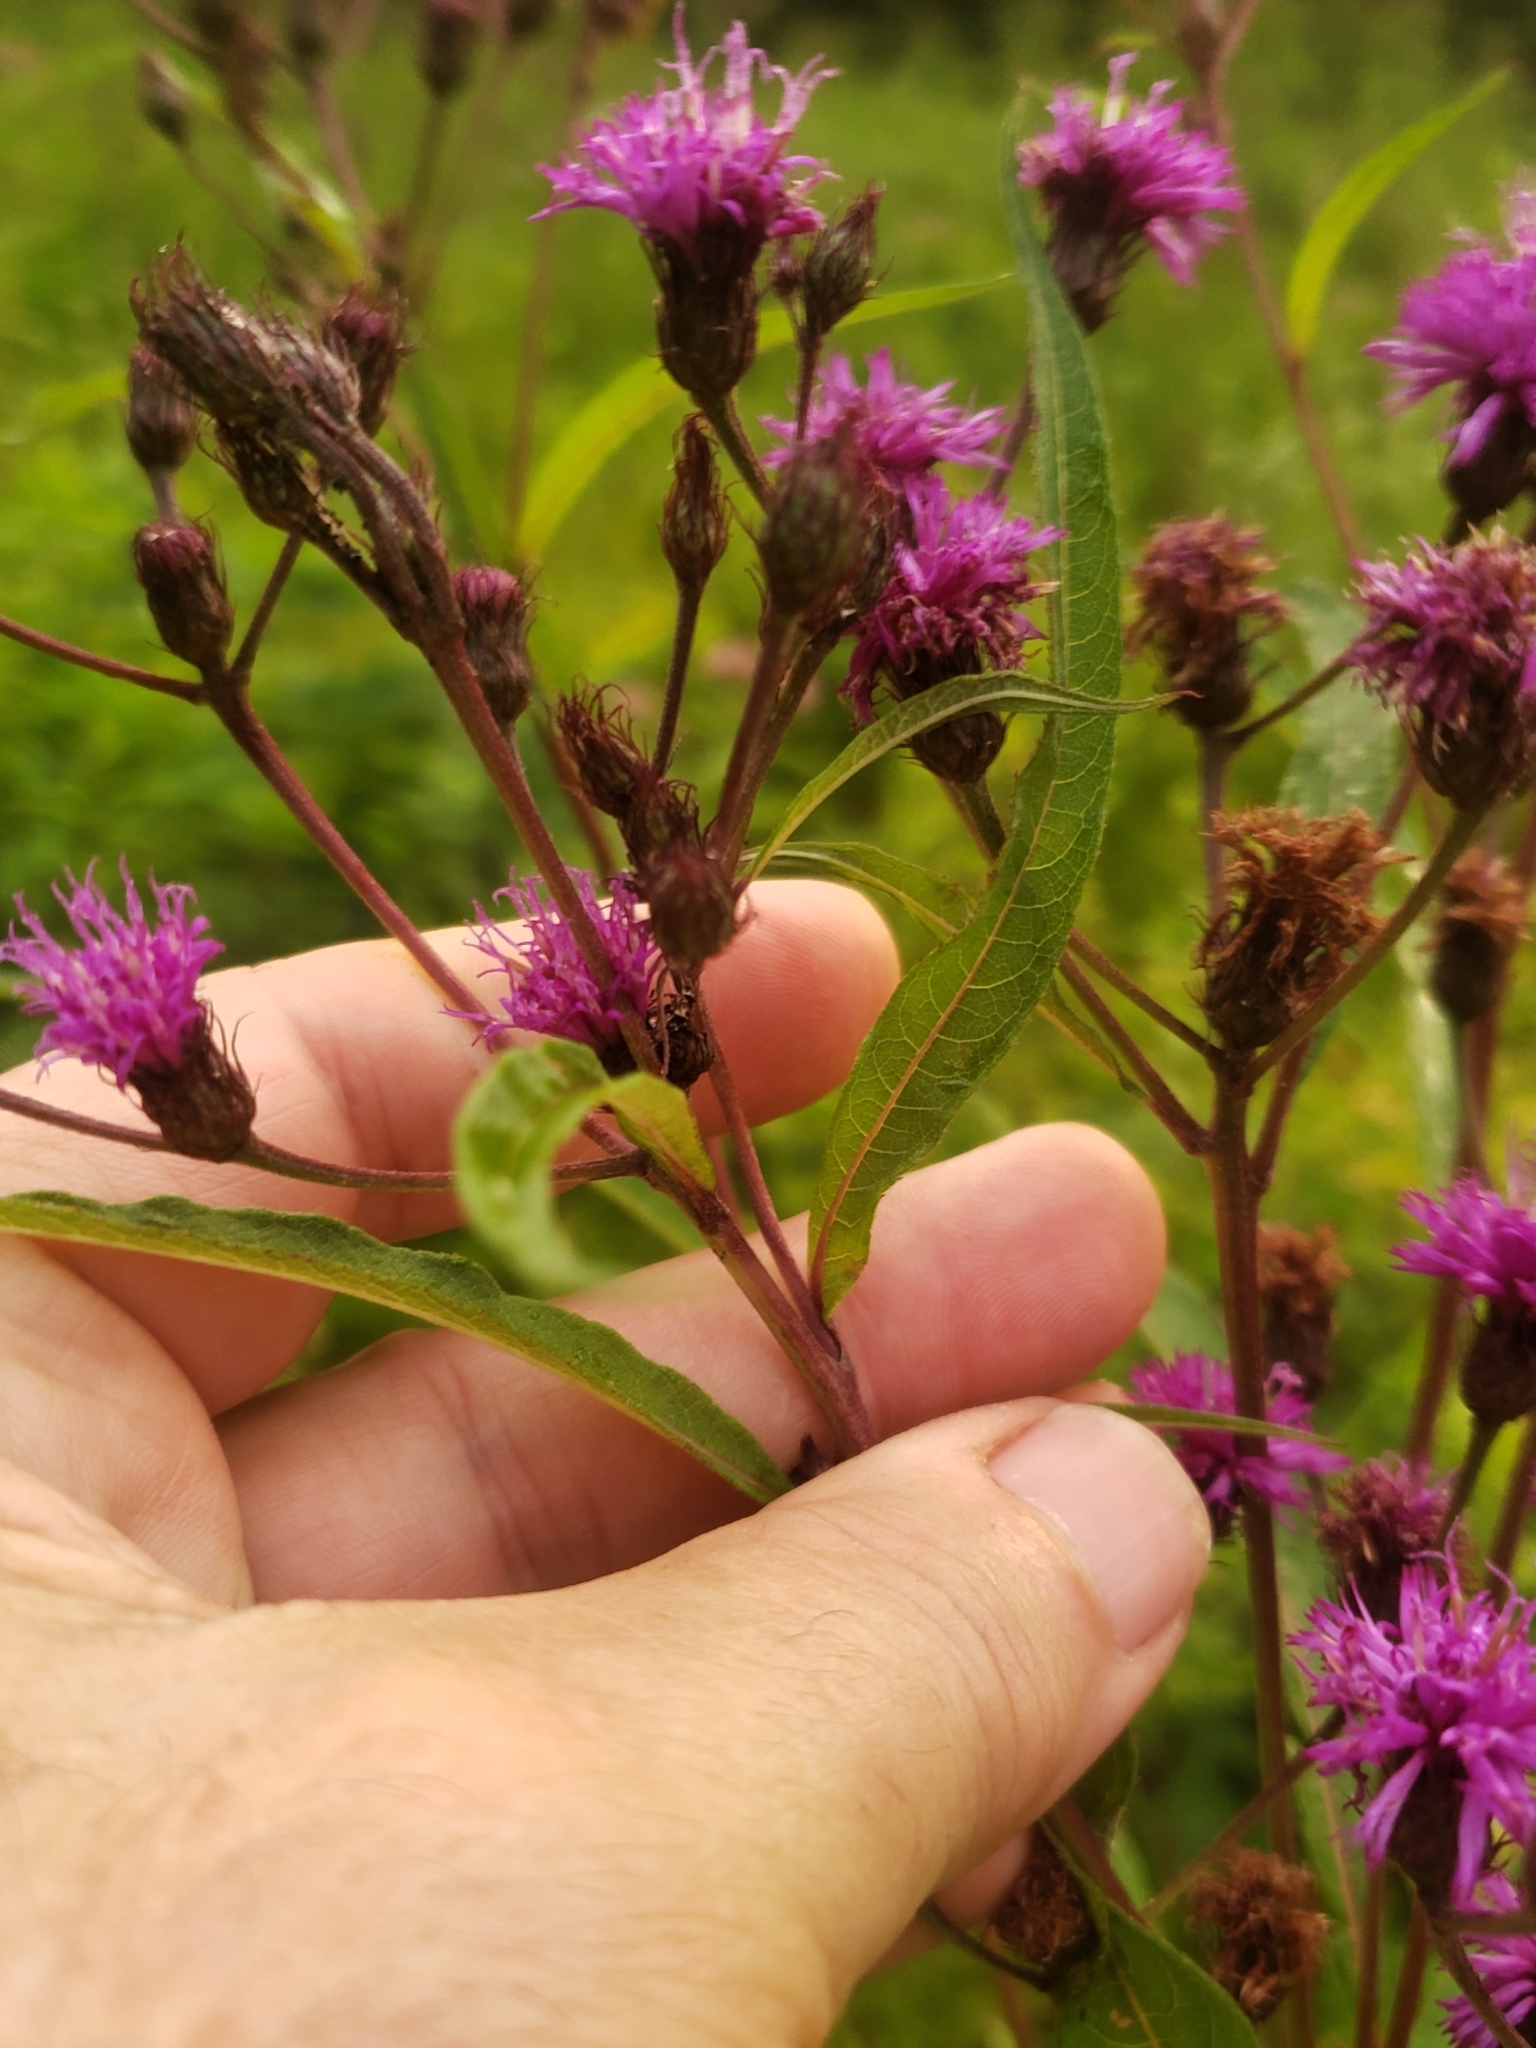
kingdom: Plantae
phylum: Tracheophyta
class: Magnoliopsida
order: Asterales
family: Asteraceae
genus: Vernonia
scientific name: Vernonia noveboracensis
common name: New york ironweed
